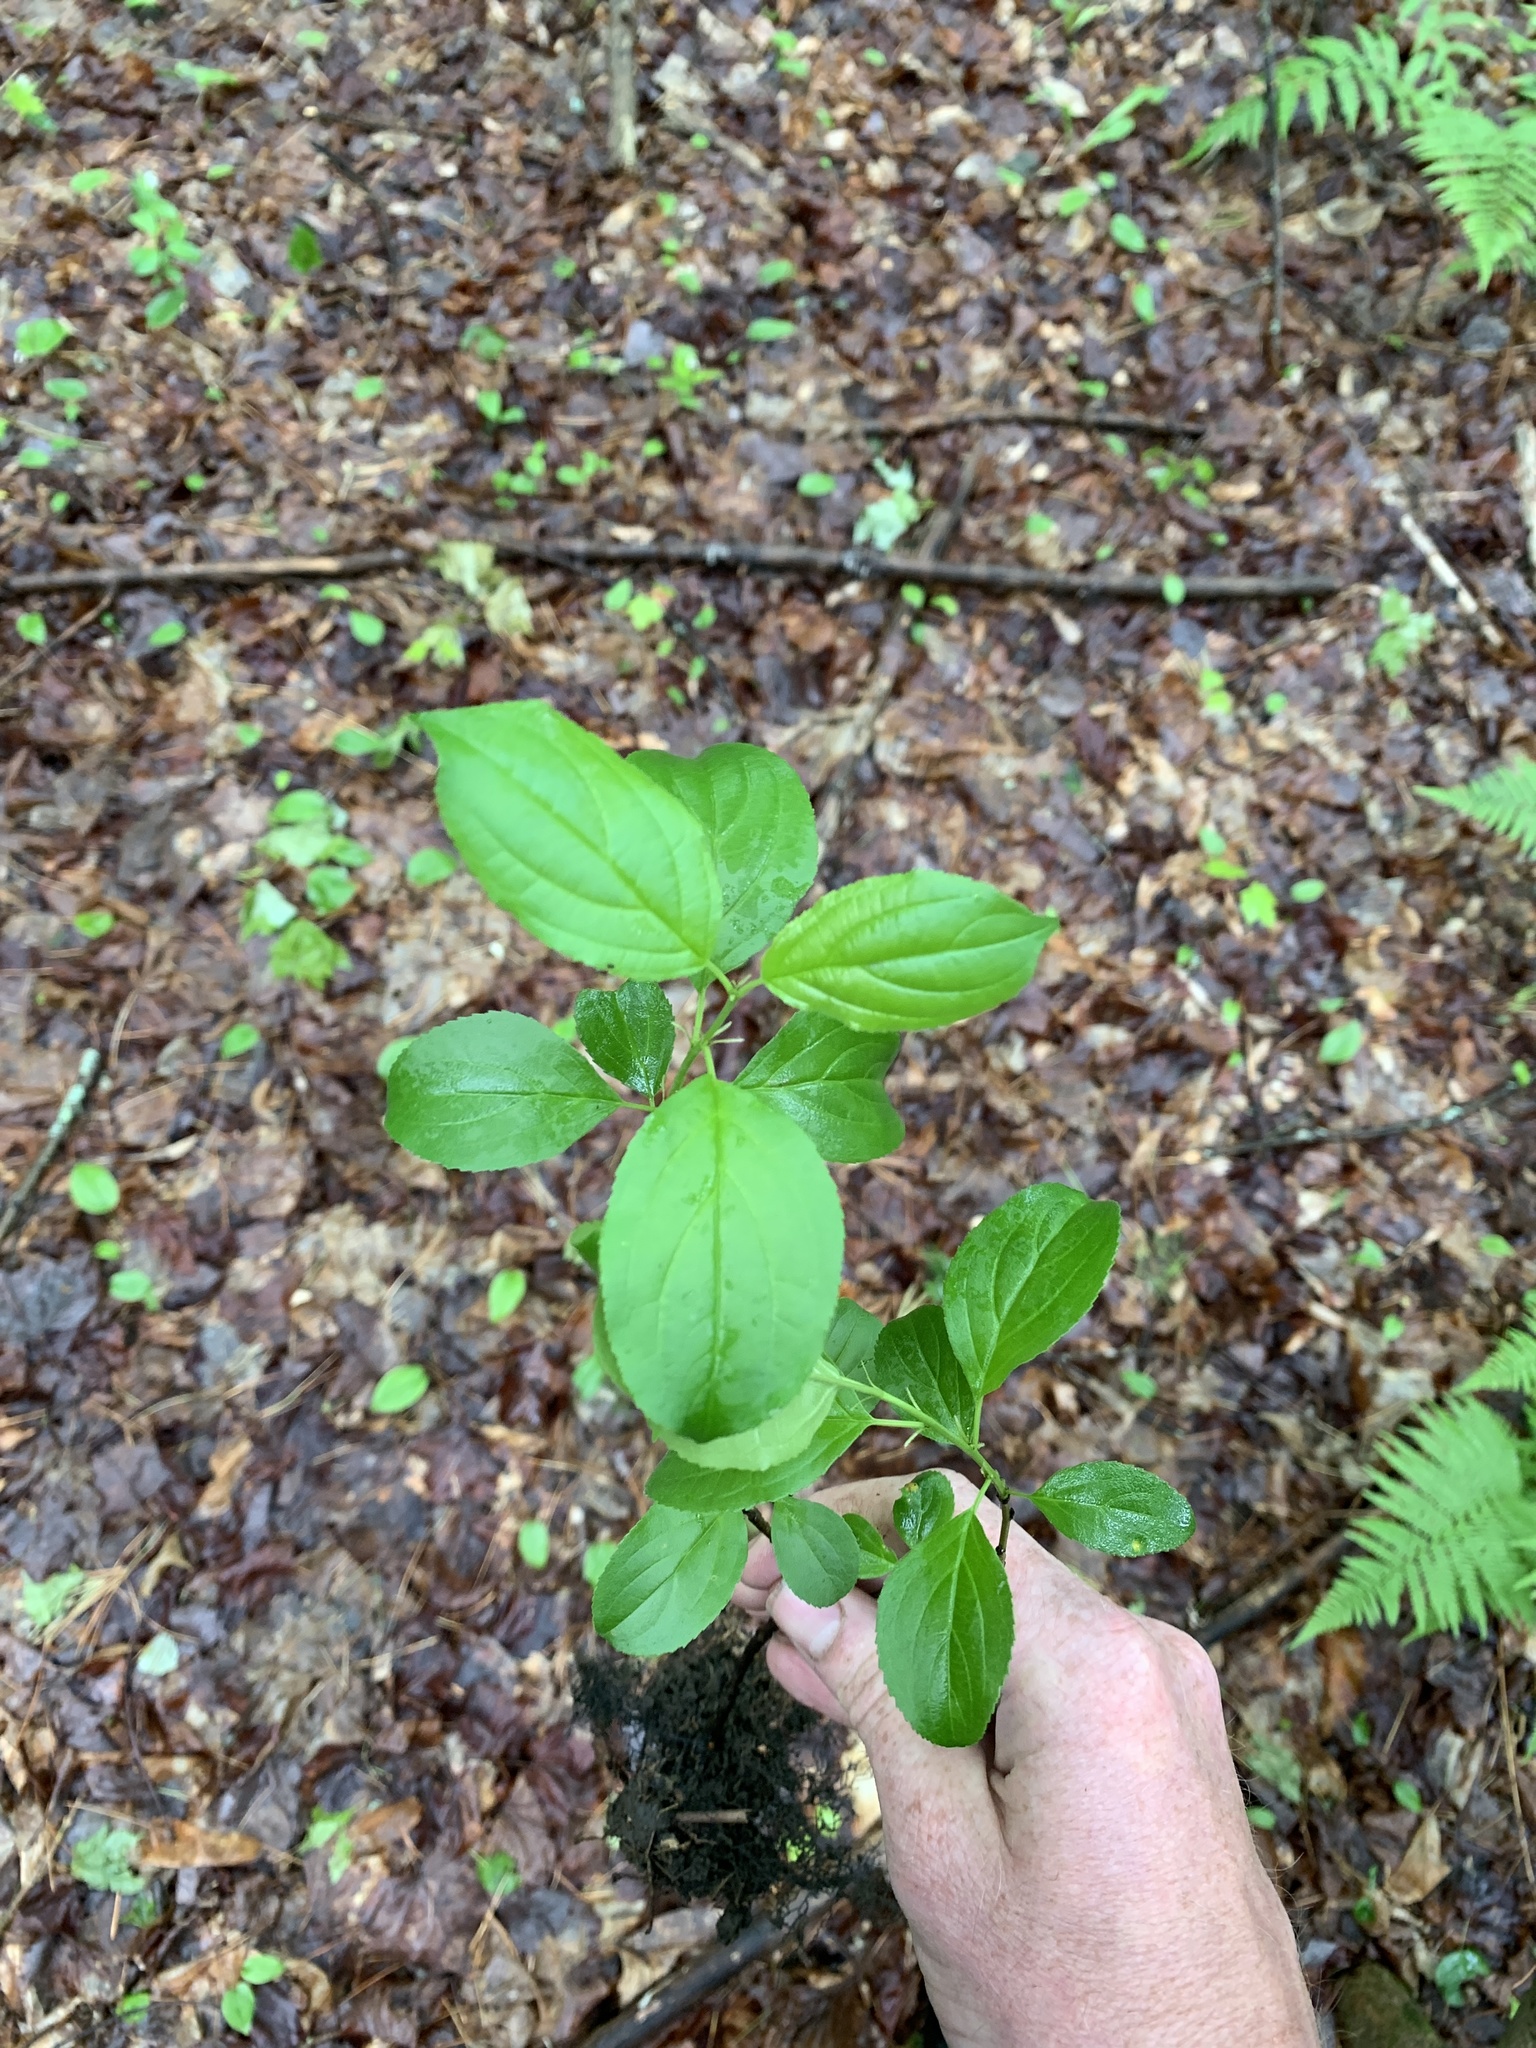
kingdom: Plantae
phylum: Tracheophyta
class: Magnoliopsida
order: Rosales
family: Rhamnaceae
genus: Rhamnus
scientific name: Rhamnus cathartica
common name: Common buckthorn
